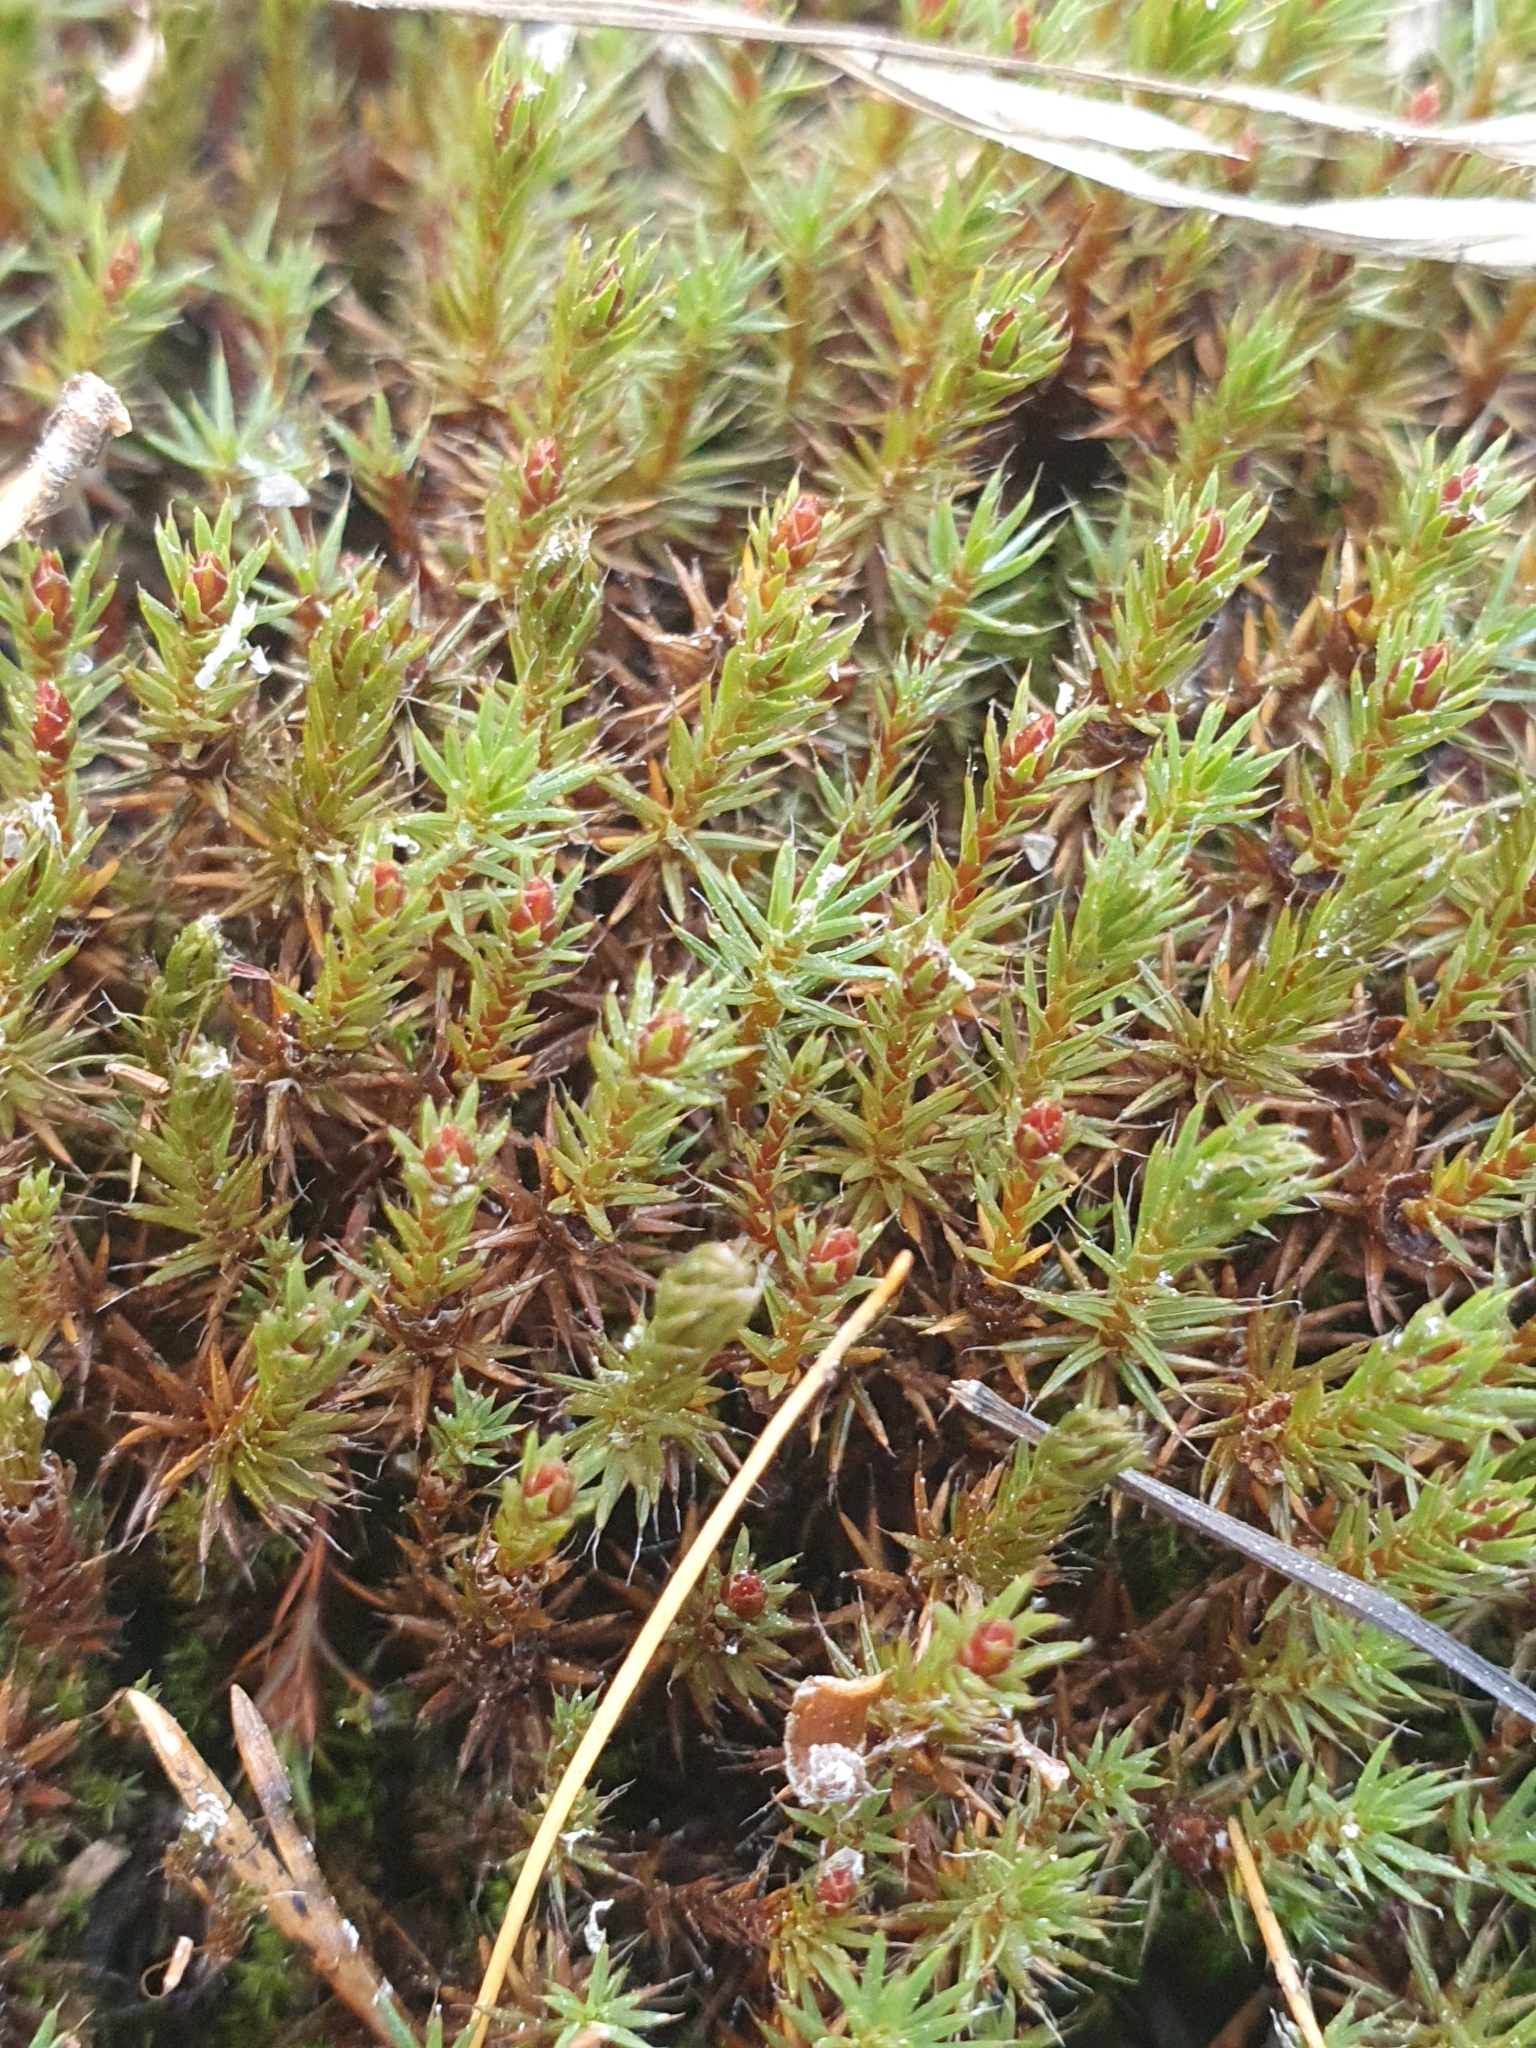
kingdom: Plantae
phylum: Bryophyta
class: Polytrichopsida
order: Polytrichales
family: Polytrichaceae
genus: Polytrichum
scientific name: Polytrichum piliferum
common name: Bristly haircap
